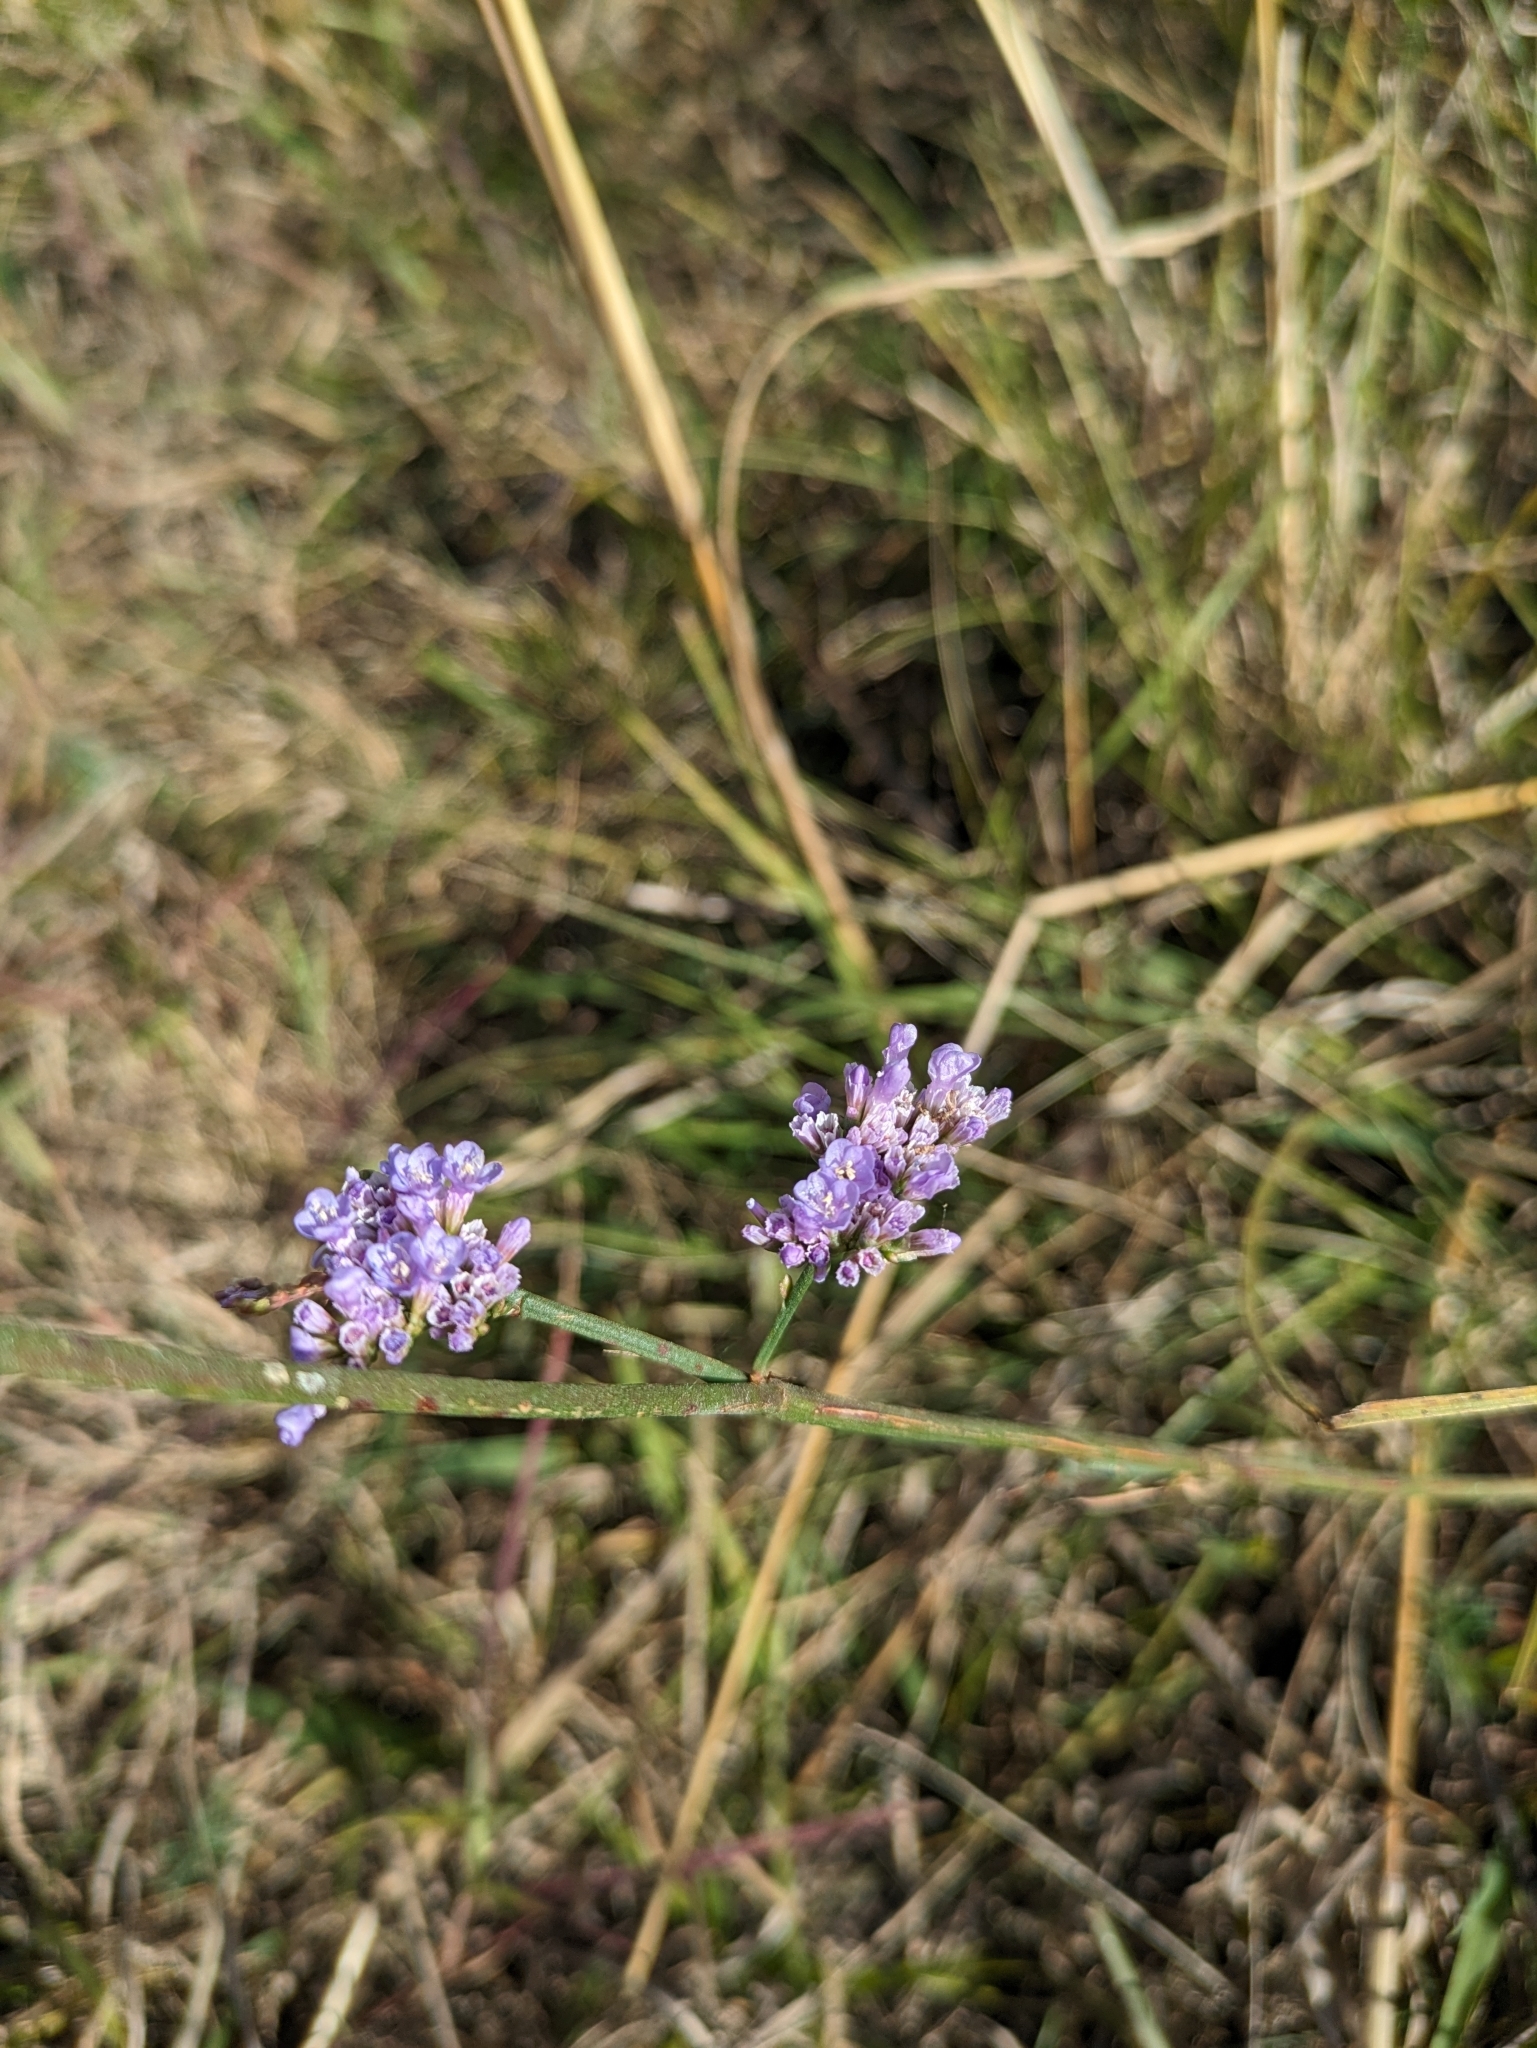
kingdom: Plantae
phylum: Tracheophyta
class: Magnoliopsida
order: Caryophyllales
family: Plumbaginaceae
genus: Limonium
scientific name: Limonium gmelini
